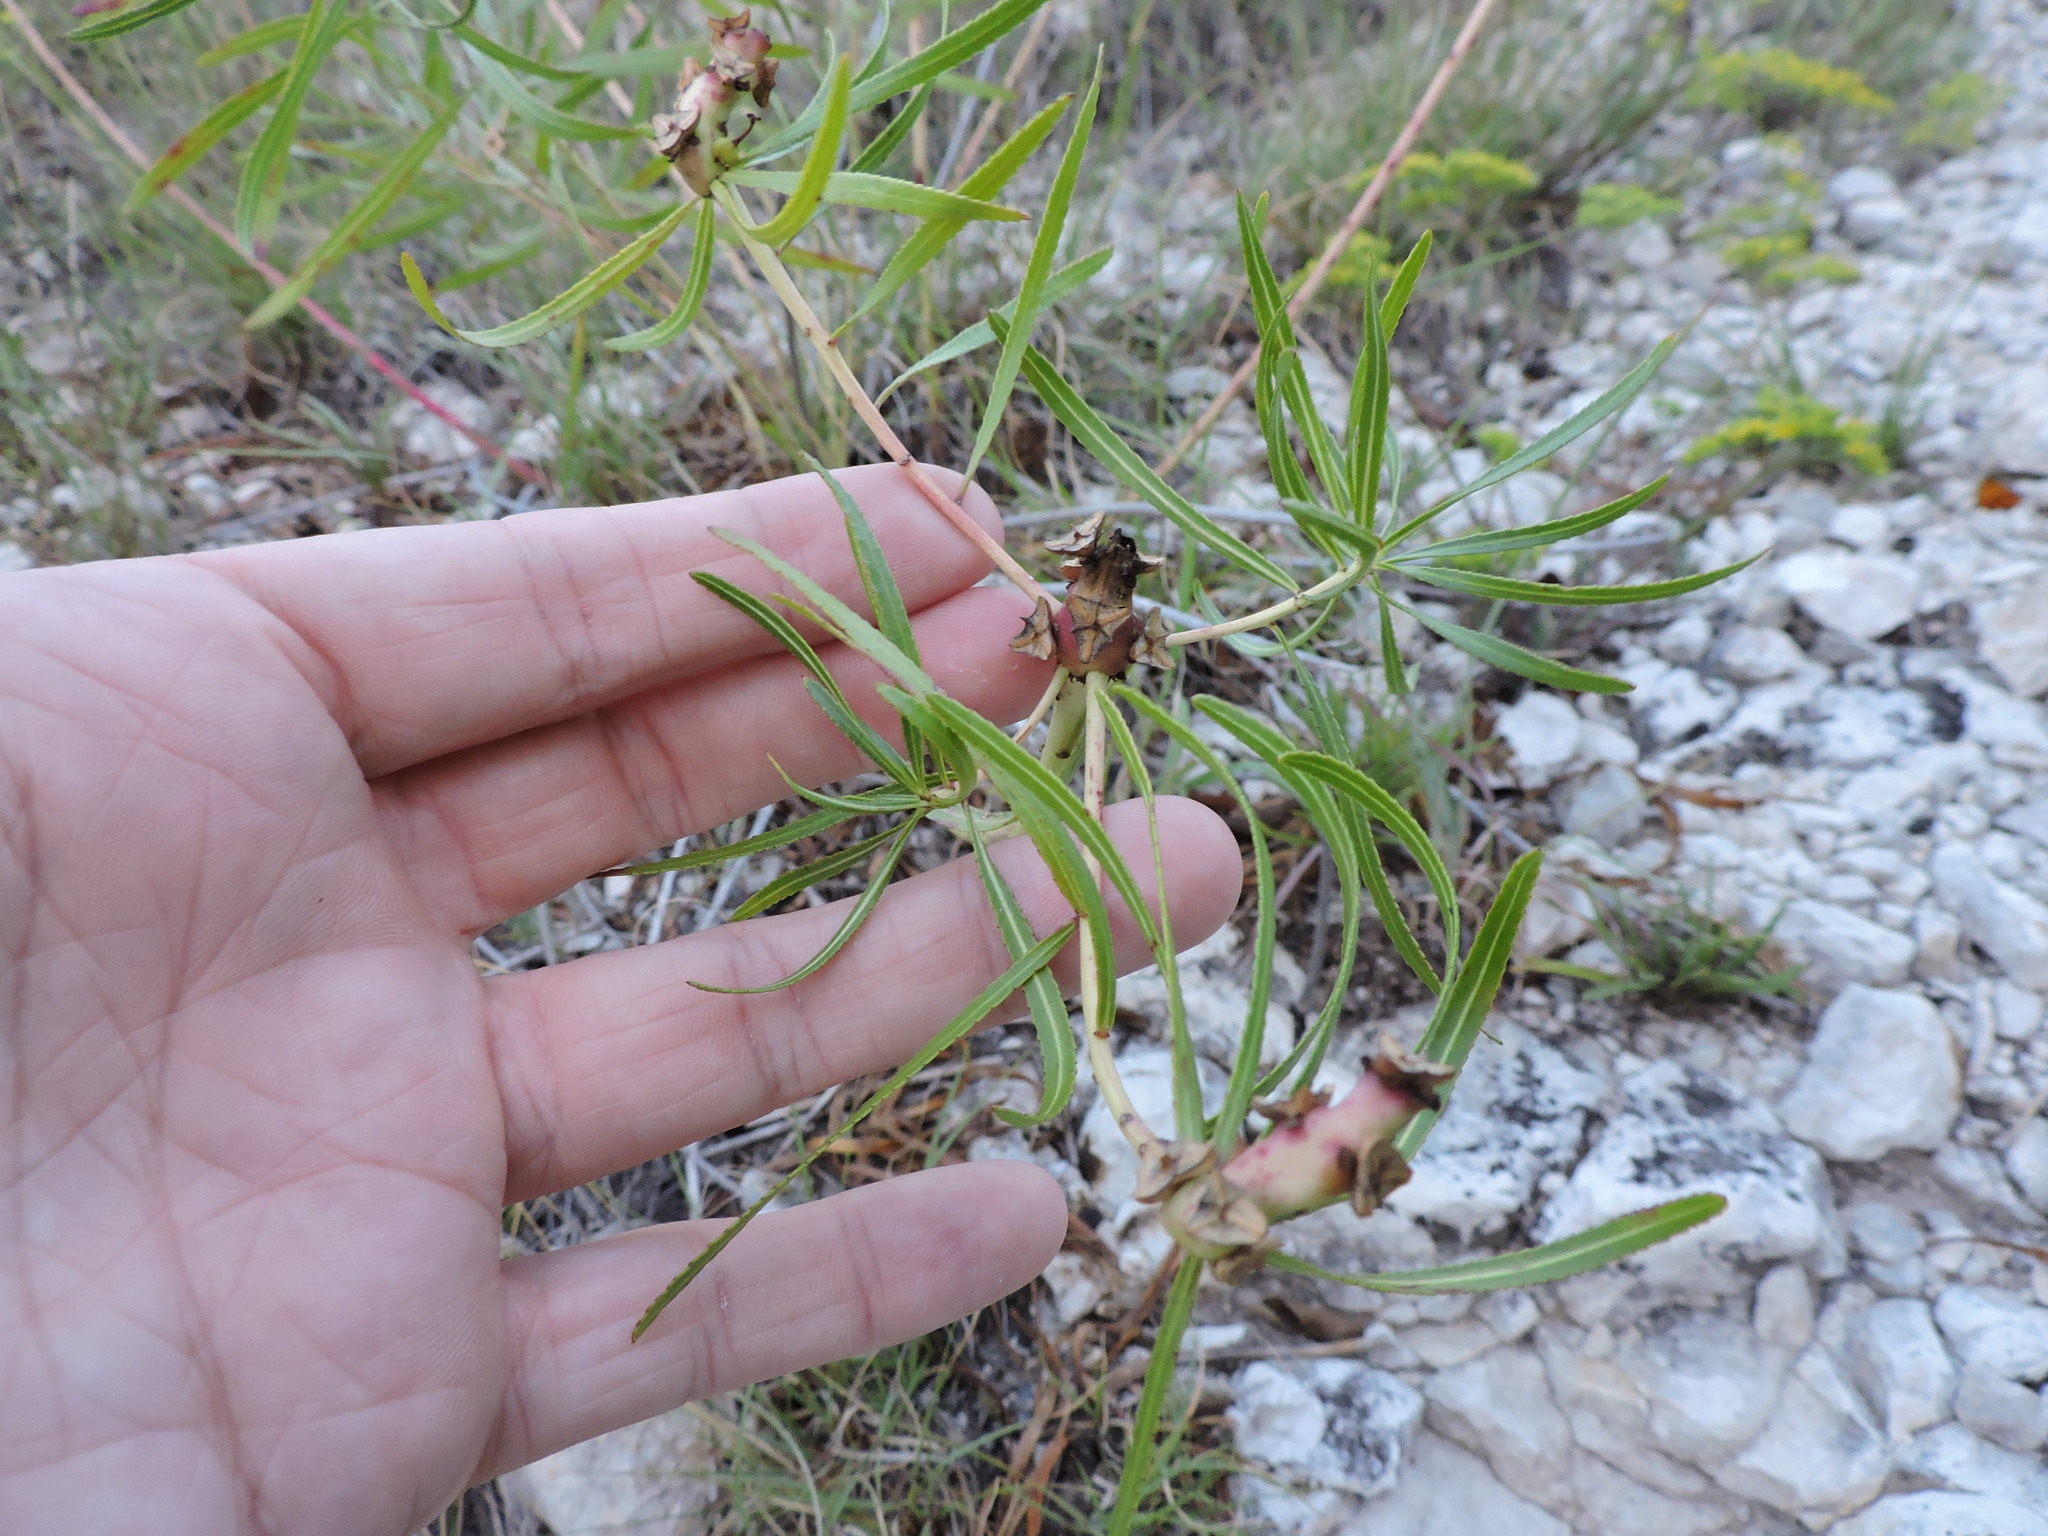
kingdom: Plantae
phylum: Tracheophyta
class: Magnoliopsida
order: Malpighiales
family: Euphorbiaceae
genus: Stillingia
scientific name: Stillingia texana
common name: Texas stillingia
